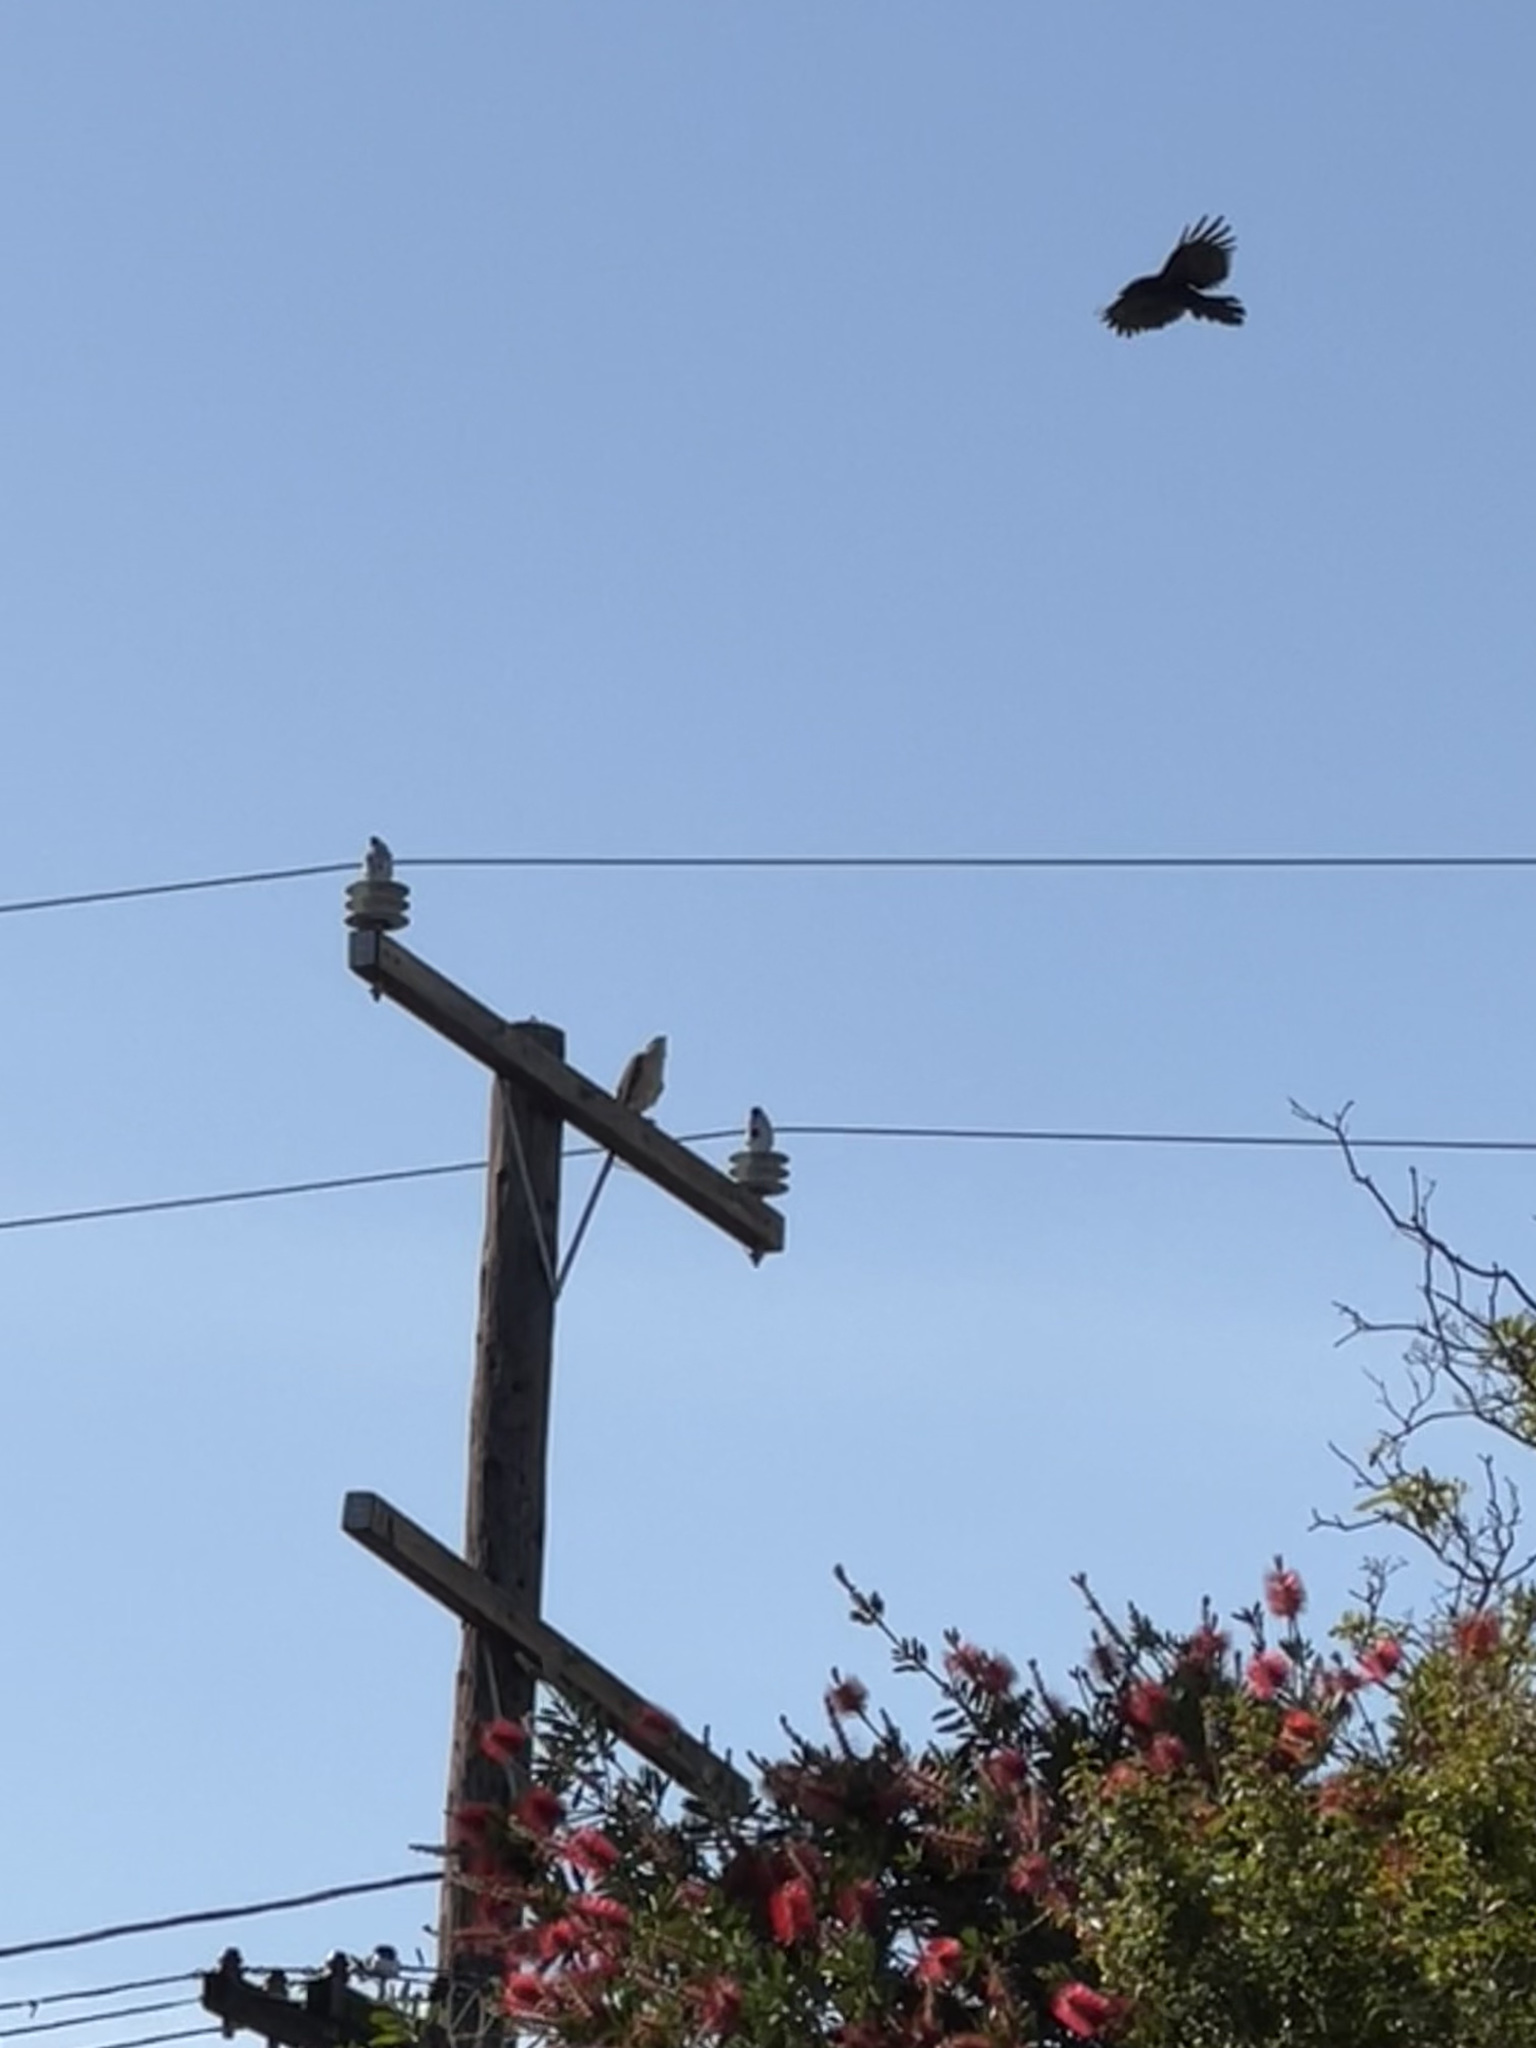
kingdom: Animalia
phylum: Chordata
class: Aves
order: Accipitriformes
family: Accipitridae
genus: Accipiter
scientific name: Accipiter cooperii
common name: Cooper's hawk
